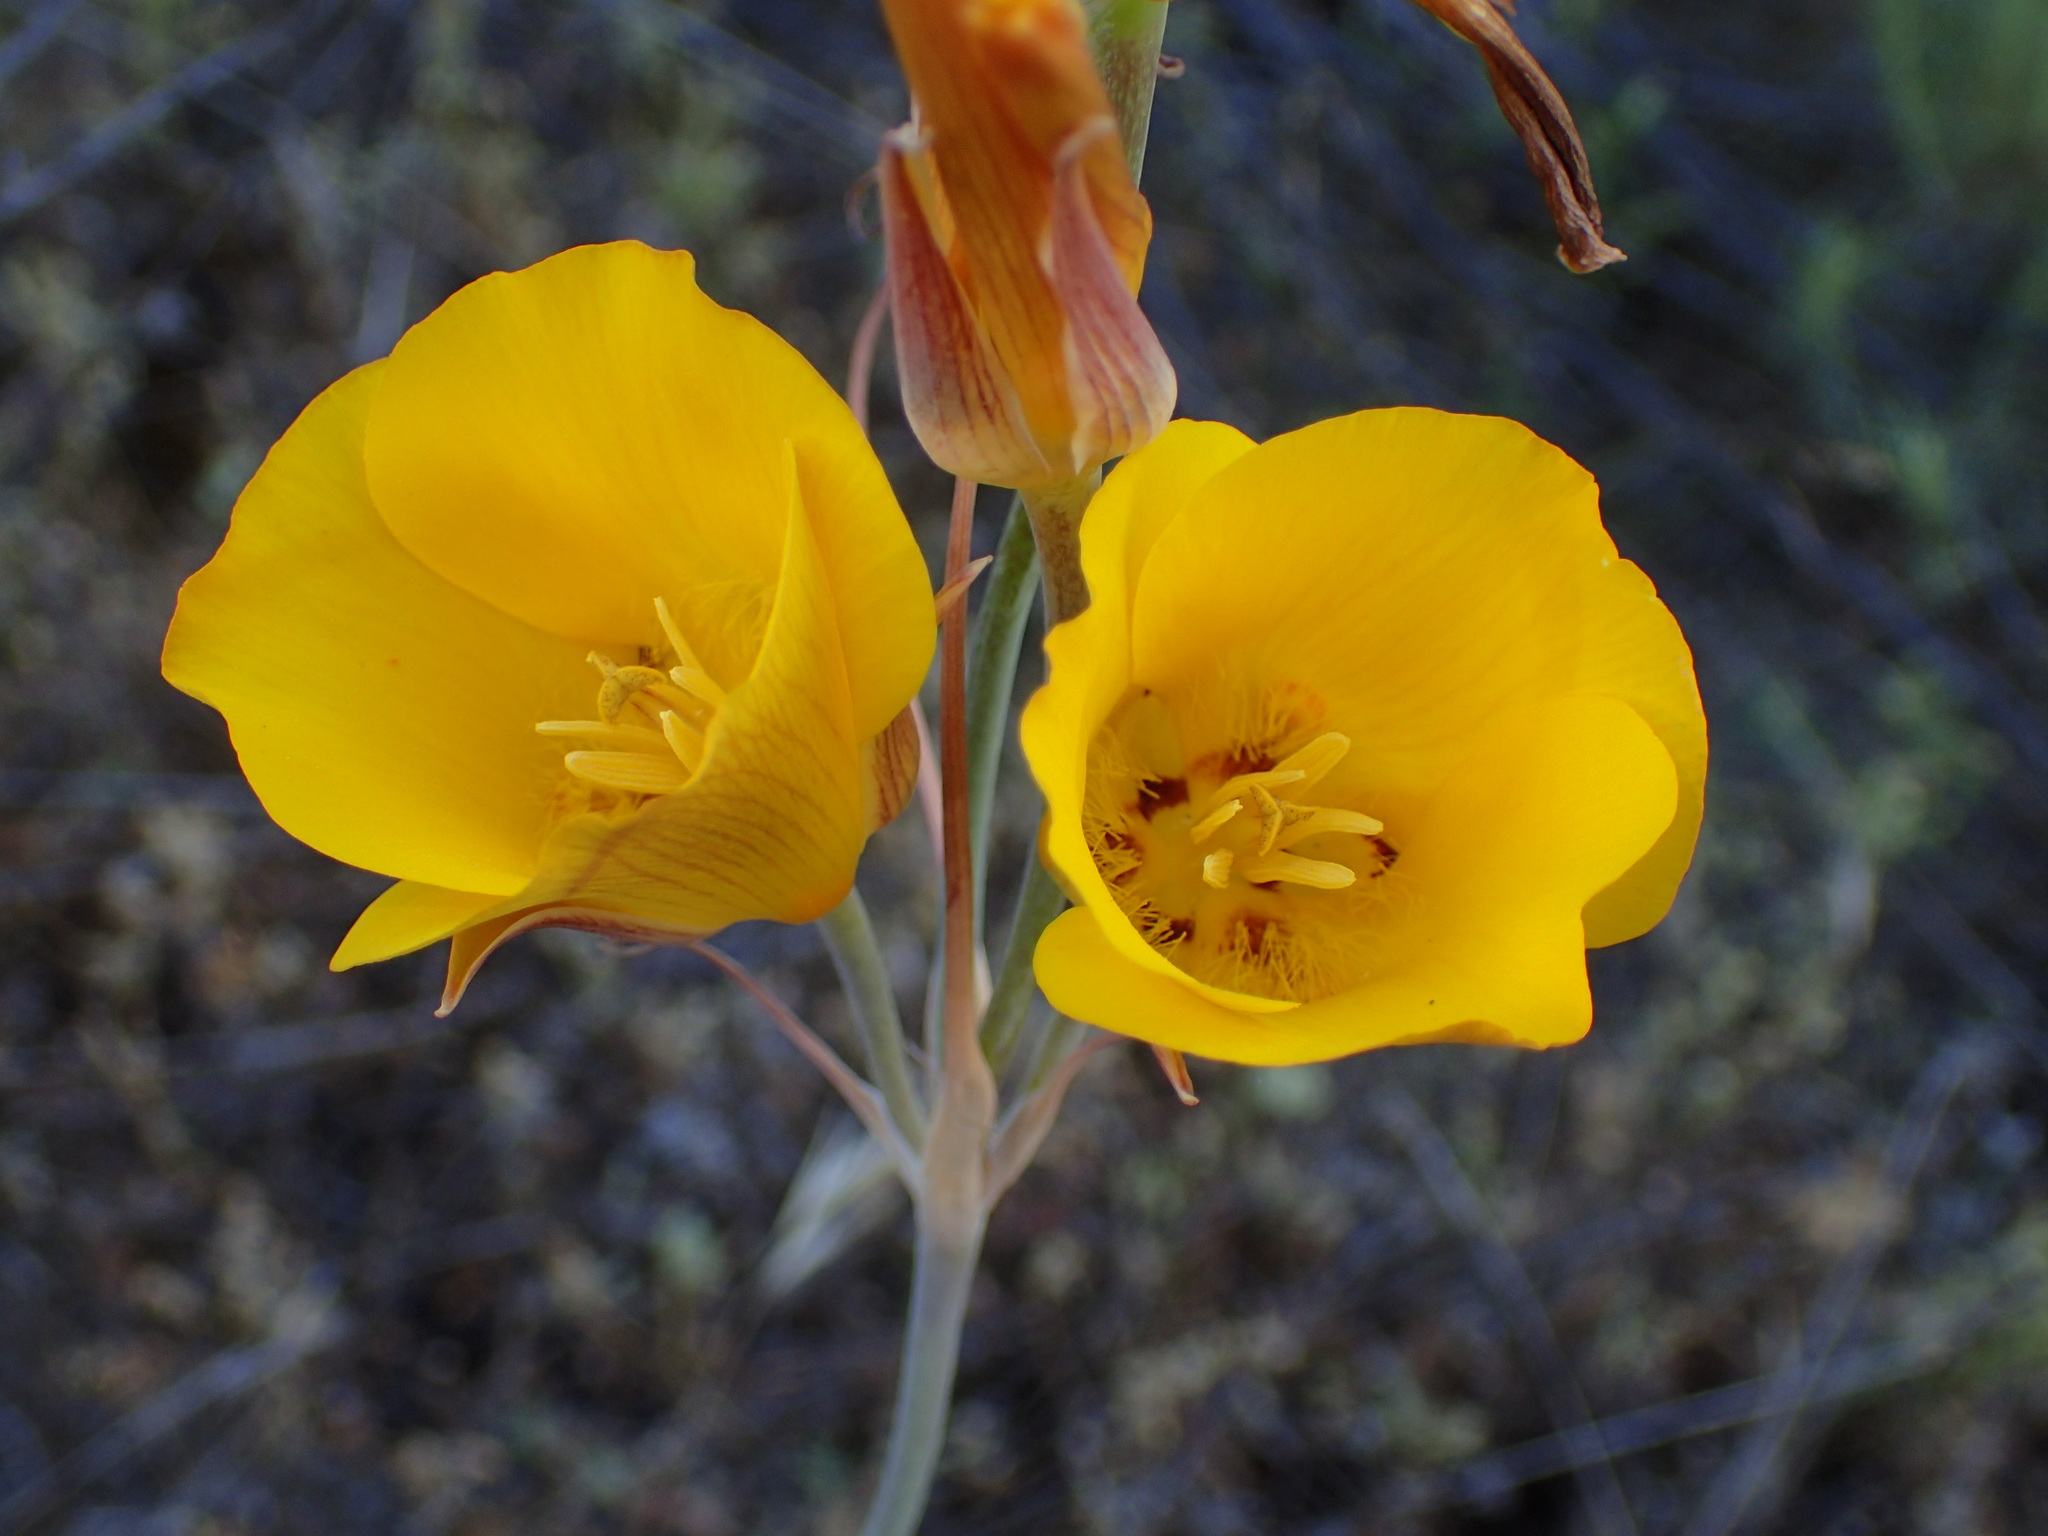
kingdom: Plantae
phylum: Tracheophyta
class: Liliopsida
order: Liliales
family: Liliaceae
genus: Calochortus
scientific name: Calochortus clavatus
